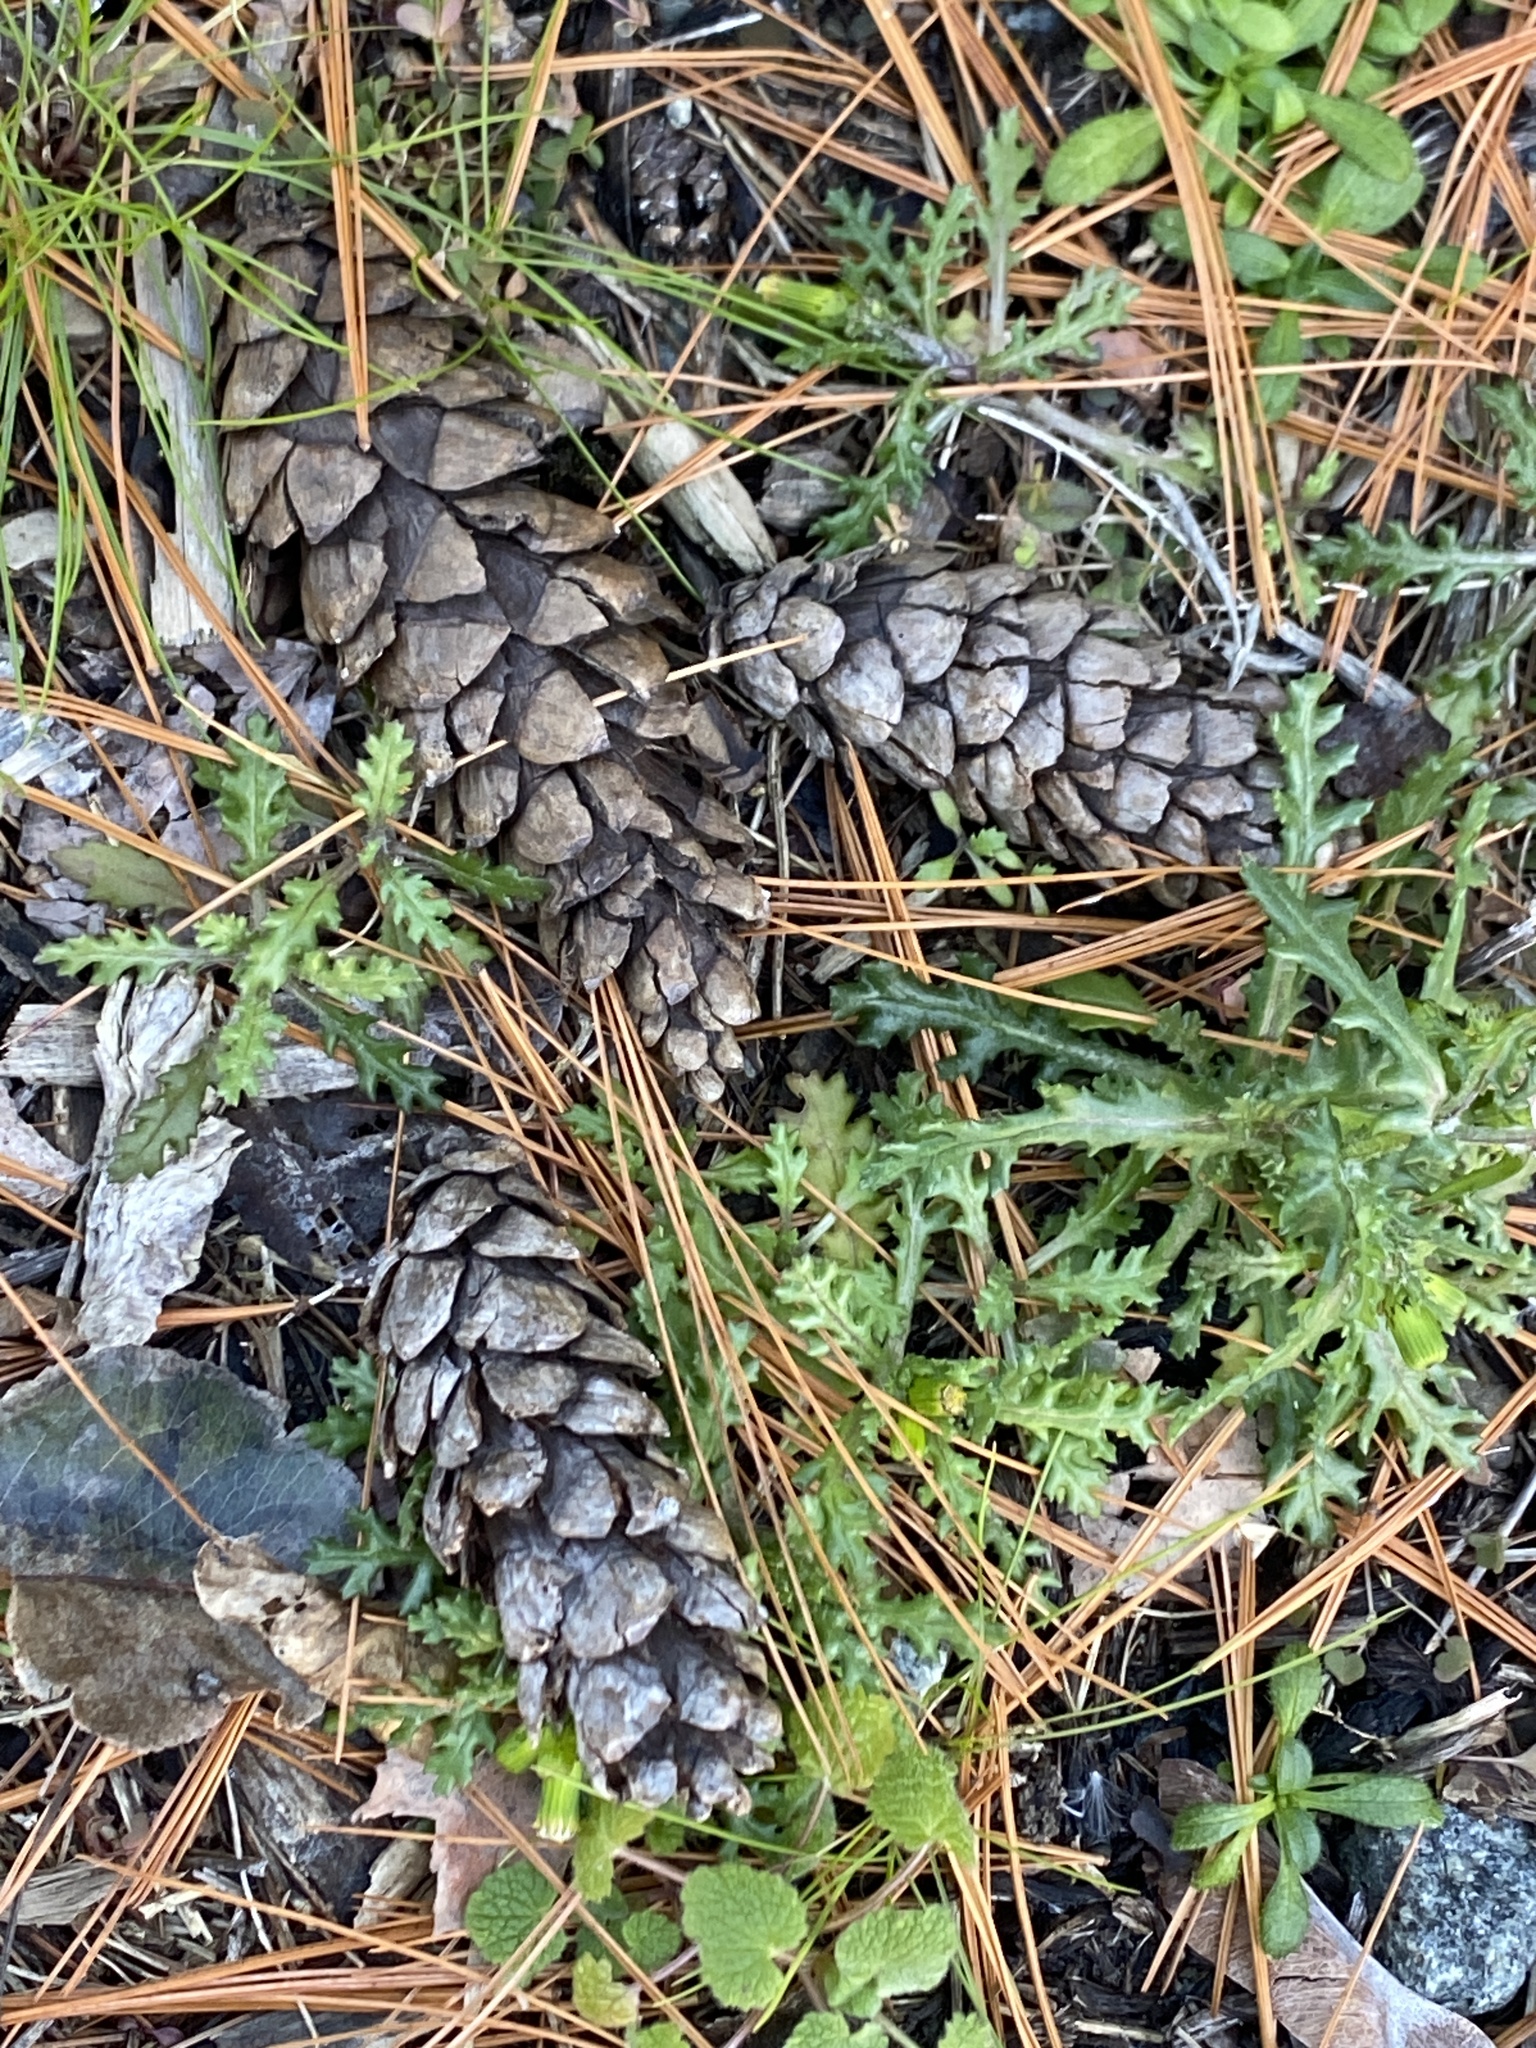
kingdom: Plantae
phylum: Tracheophyta
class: Pinopsida
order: Pinales
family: Pinaceae
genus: Pinus
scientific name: Pinus strobus
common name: Weymouth pine
